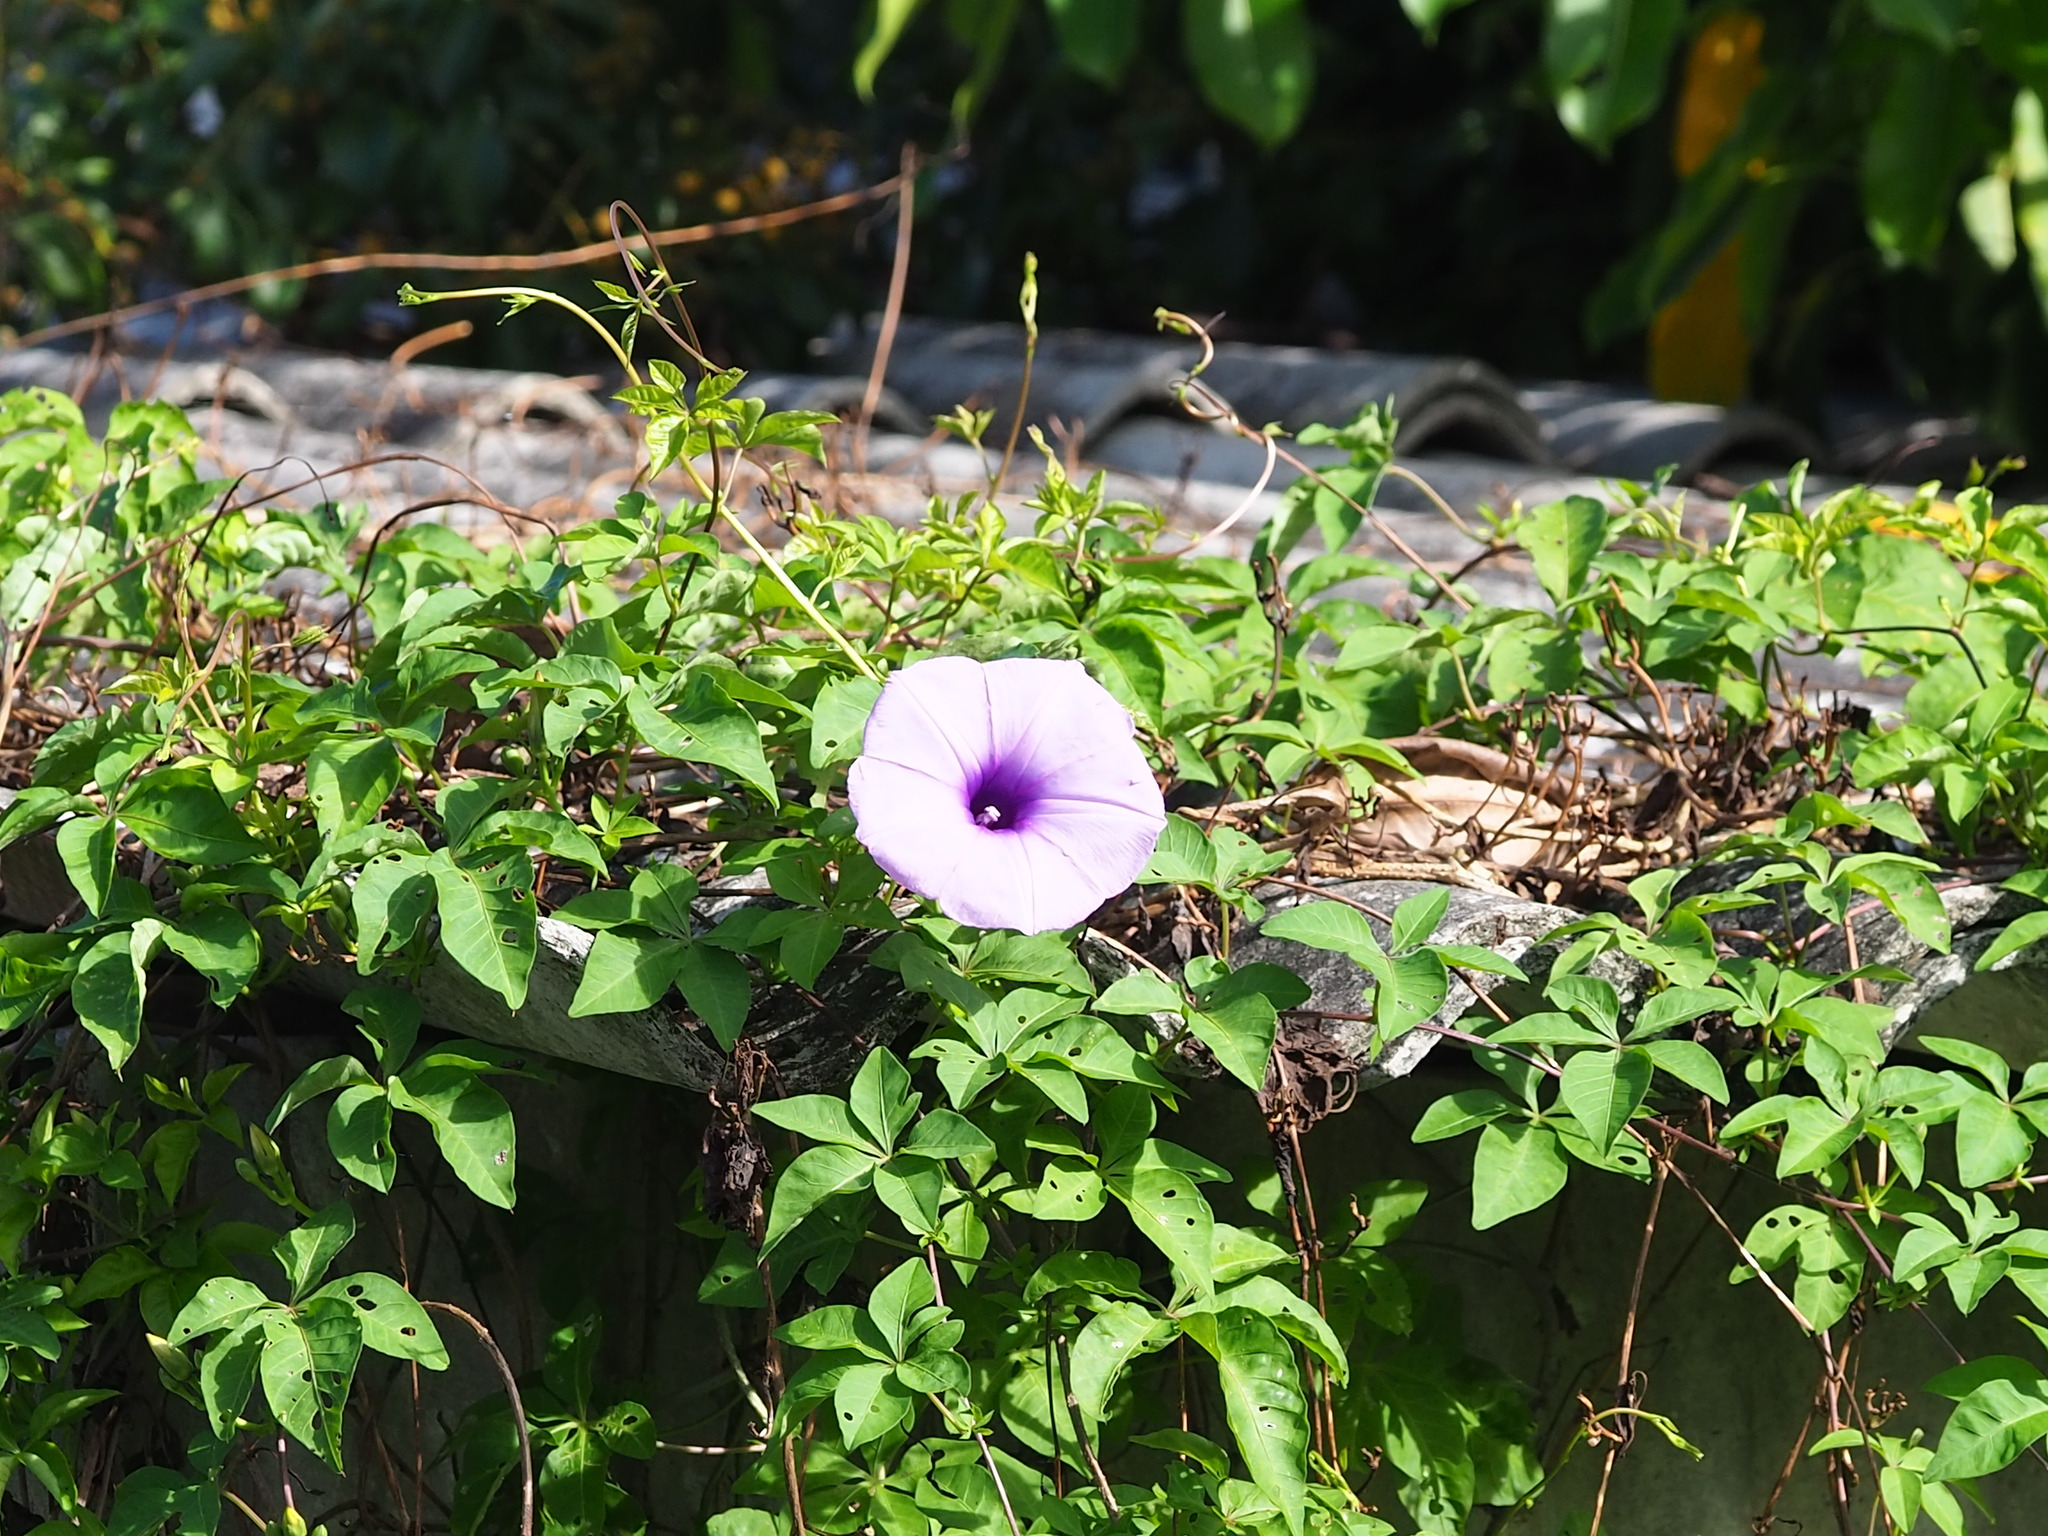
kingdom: Plantae
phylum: Tracheophyta
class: Magnoliopsida
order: Solanales
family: Convolvulaceae
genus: Ipomoea
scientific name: Ipomoea cairica
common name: Mile a minute vine
